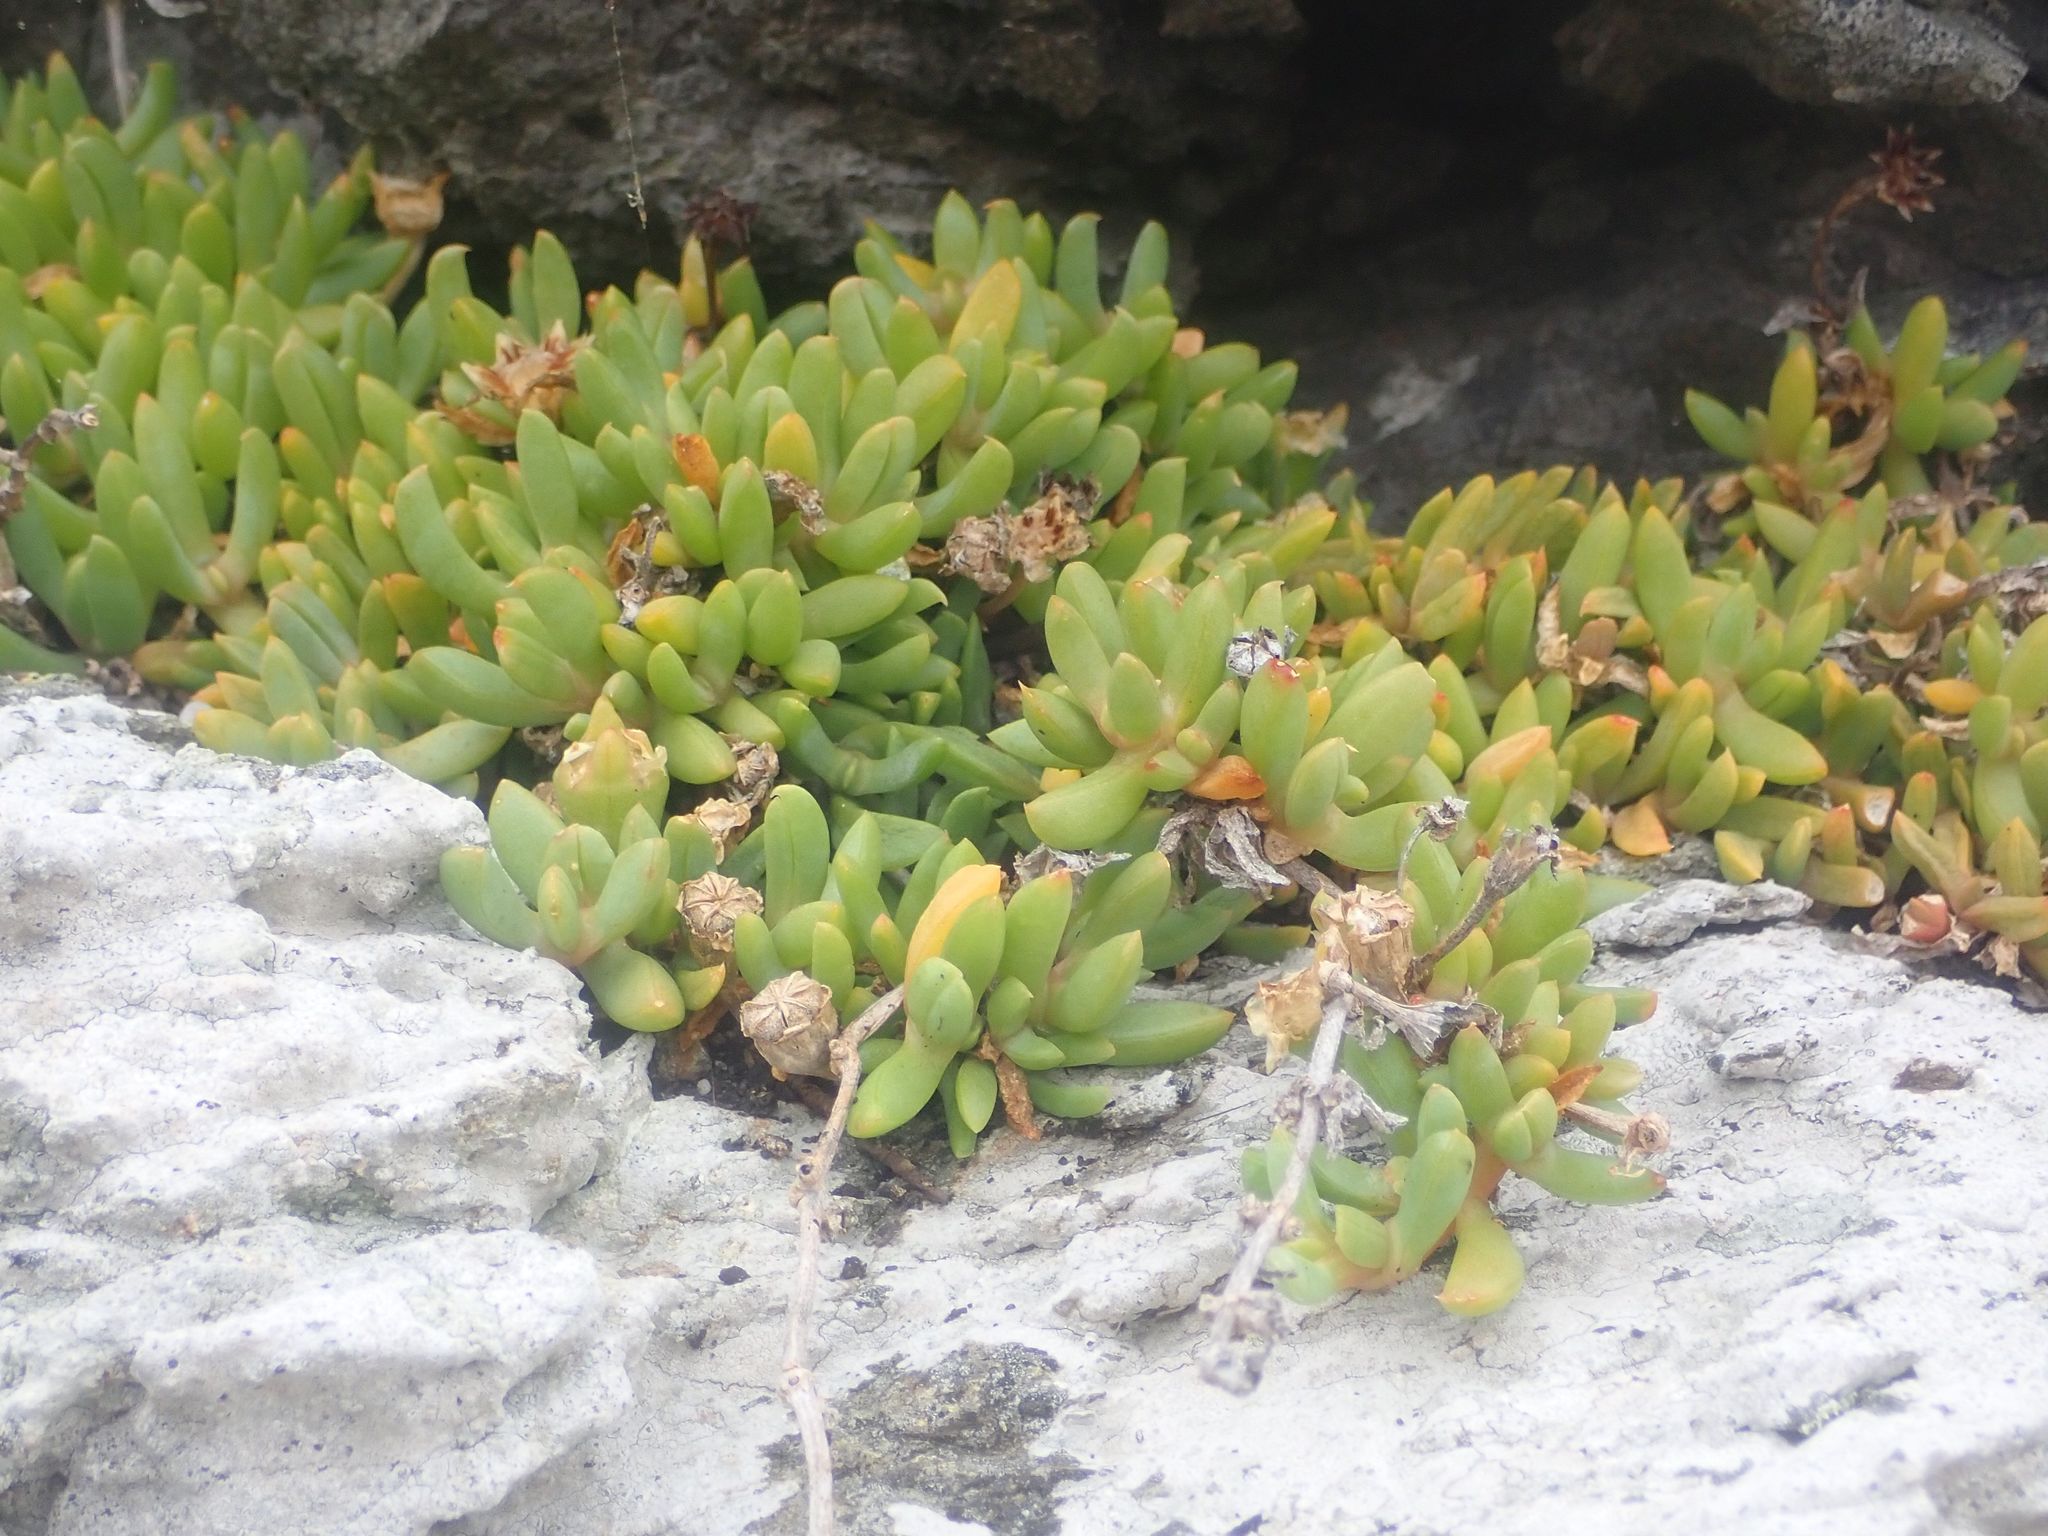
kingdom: Plantae
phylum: Tracheophyta
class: Magnoliopsida
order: Caryophyllales
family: Aizoaceae
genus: Disphyma
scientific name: Disphyma australe
